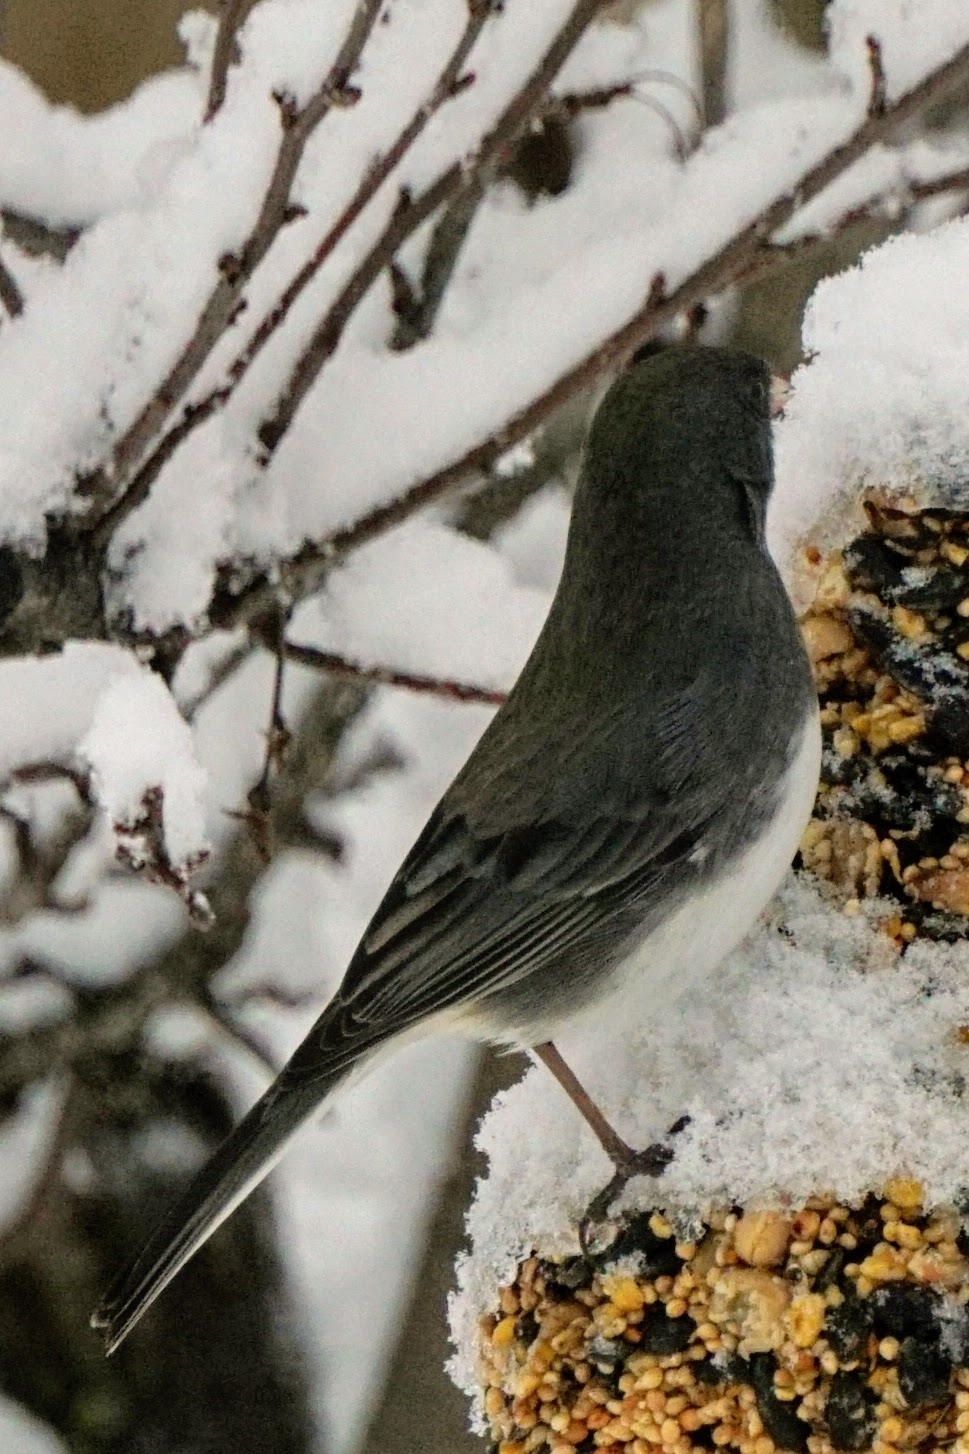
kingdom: Animalia
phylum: Chordata
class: Aves
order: Passeriformes
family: Passerellidae
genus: Junco
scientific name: Junco hyemalis
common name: Dark-eyed junco
